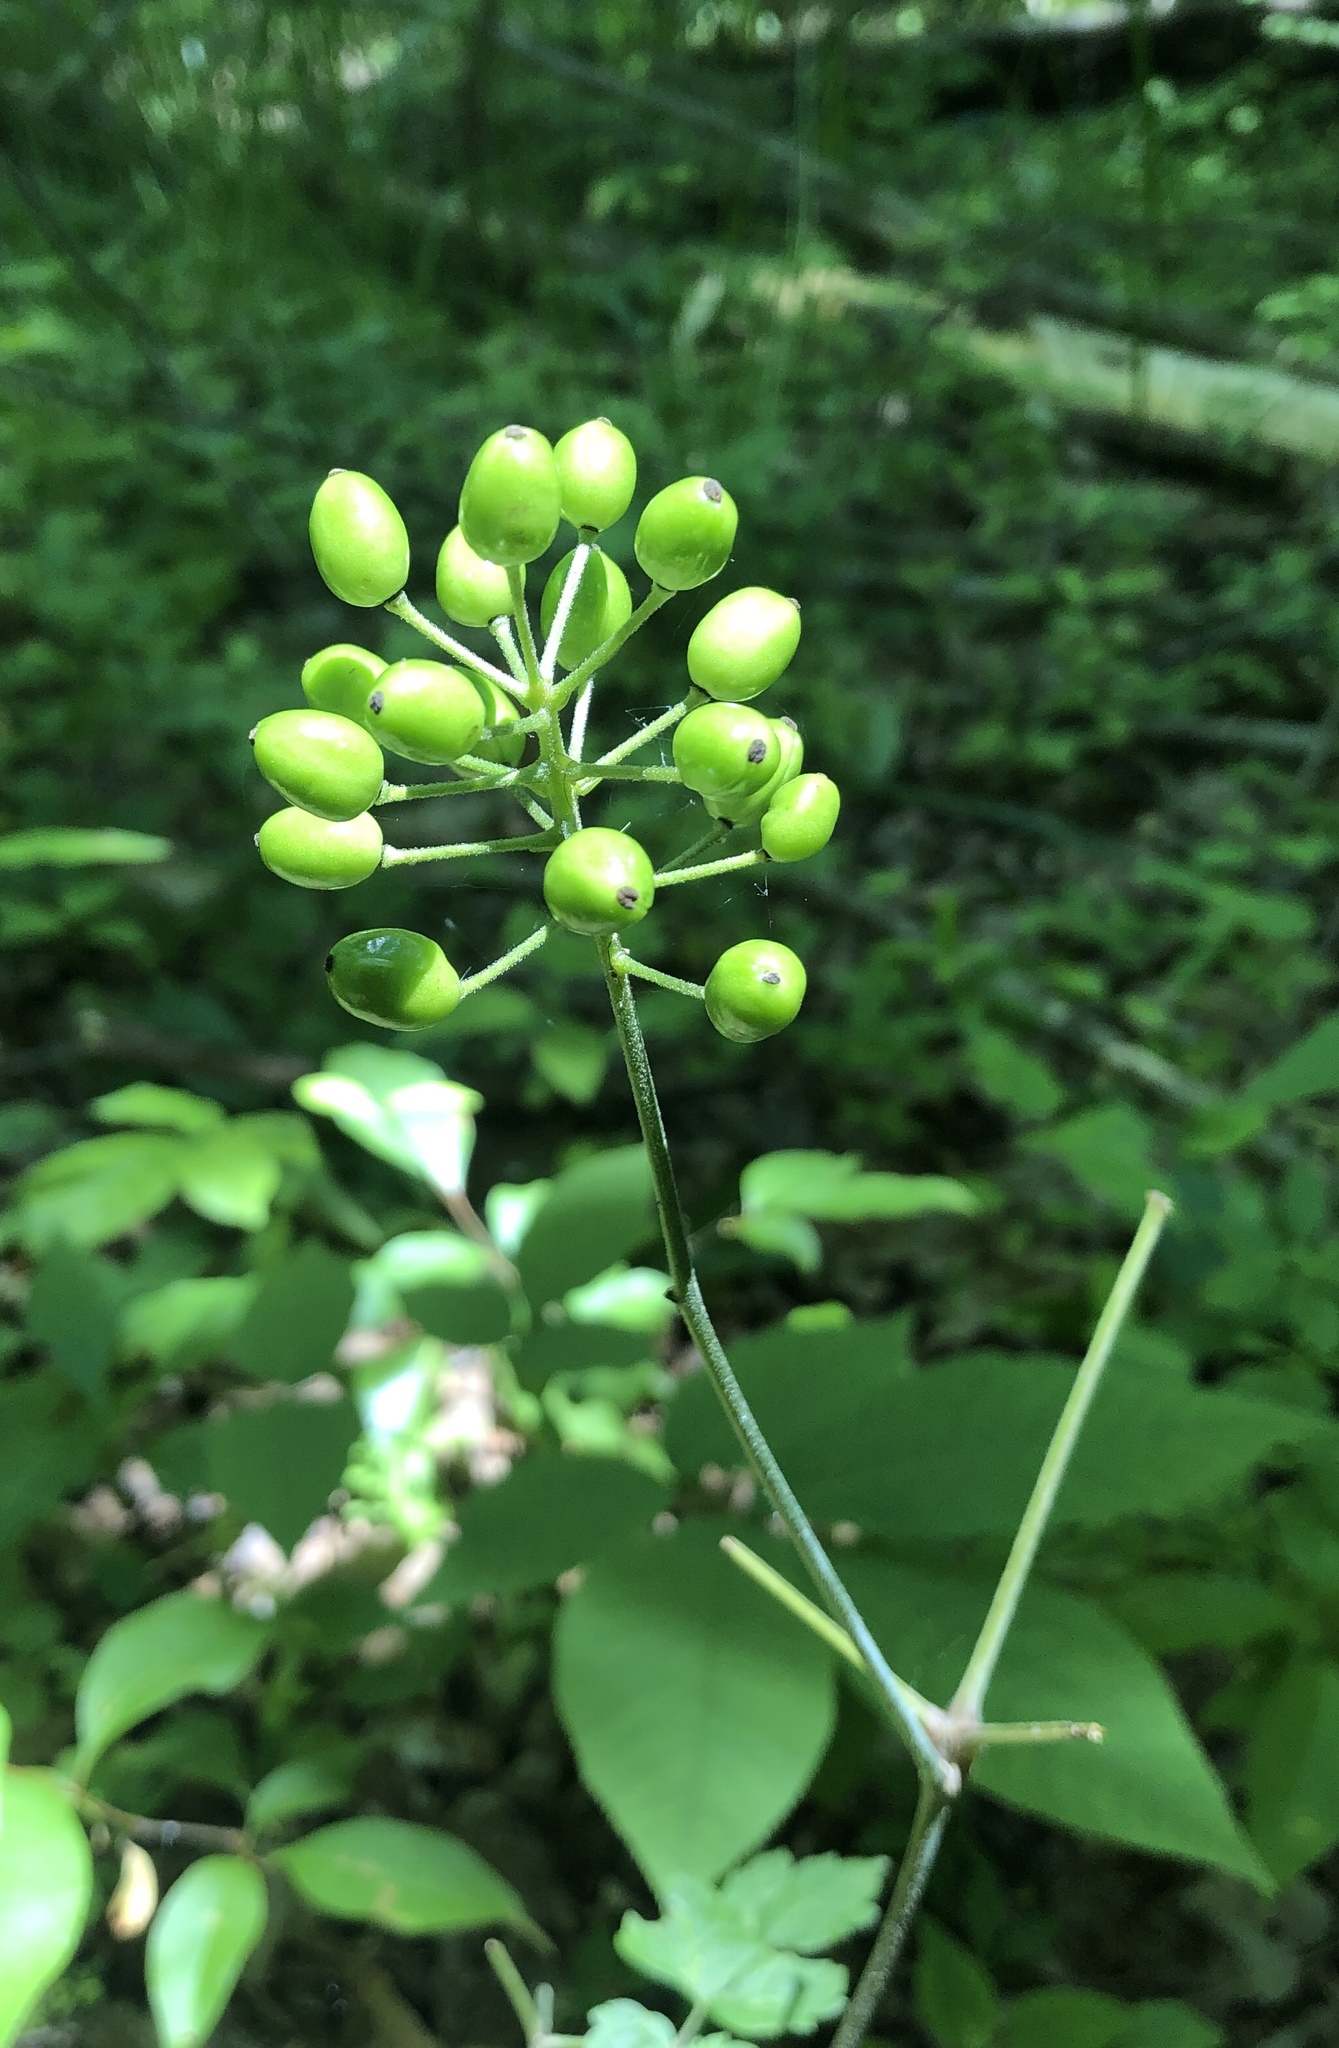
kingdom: Plantae
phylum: Tracheophyta
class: Magnoliopsida
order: Ranunculales
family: Ranunculaceae
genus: Actaea
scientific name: Actaea rubra
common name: Red baneberry
